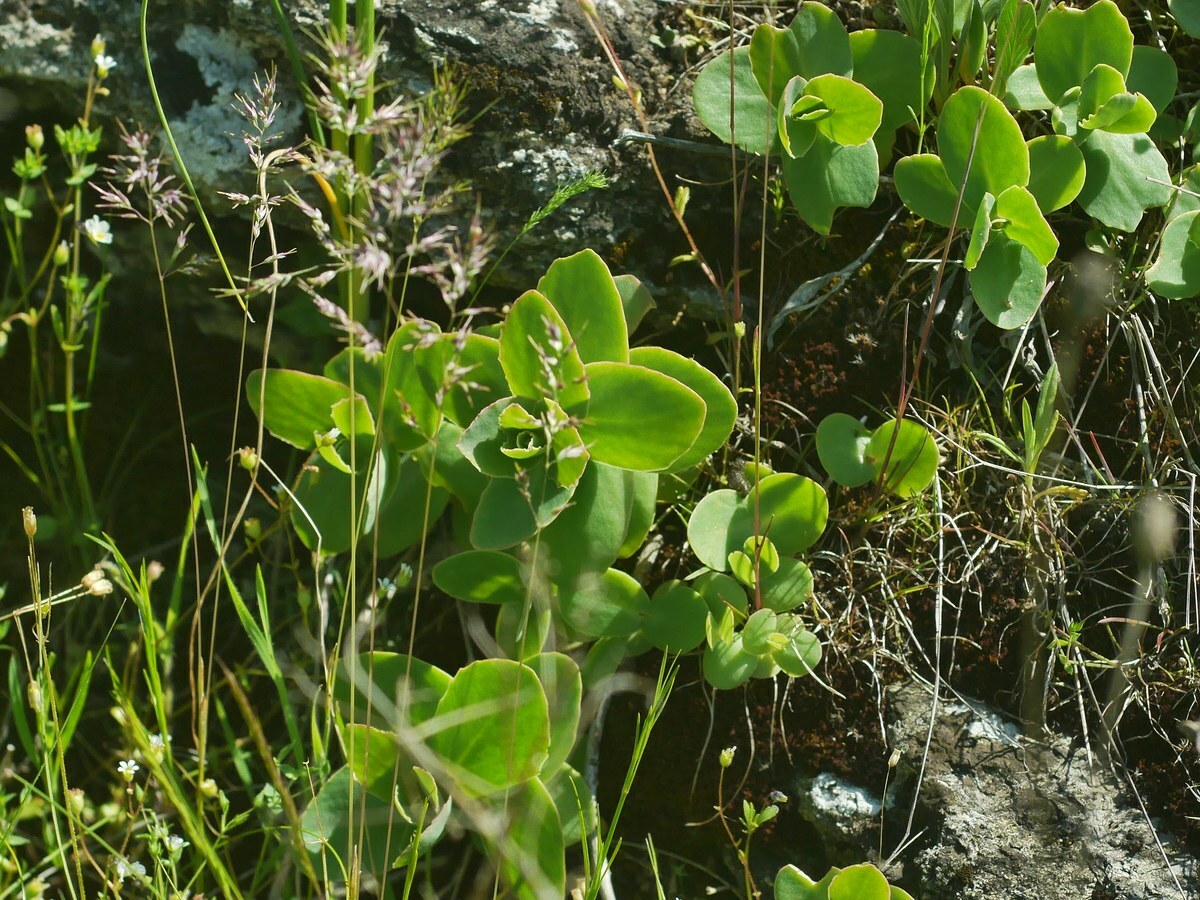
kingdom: Plantae
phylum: Tracheophyta
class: Magnoliopsida
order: Saxifragales
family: Crassulaceae
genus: Hylotelephium
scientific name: Hylotelephium maximum
